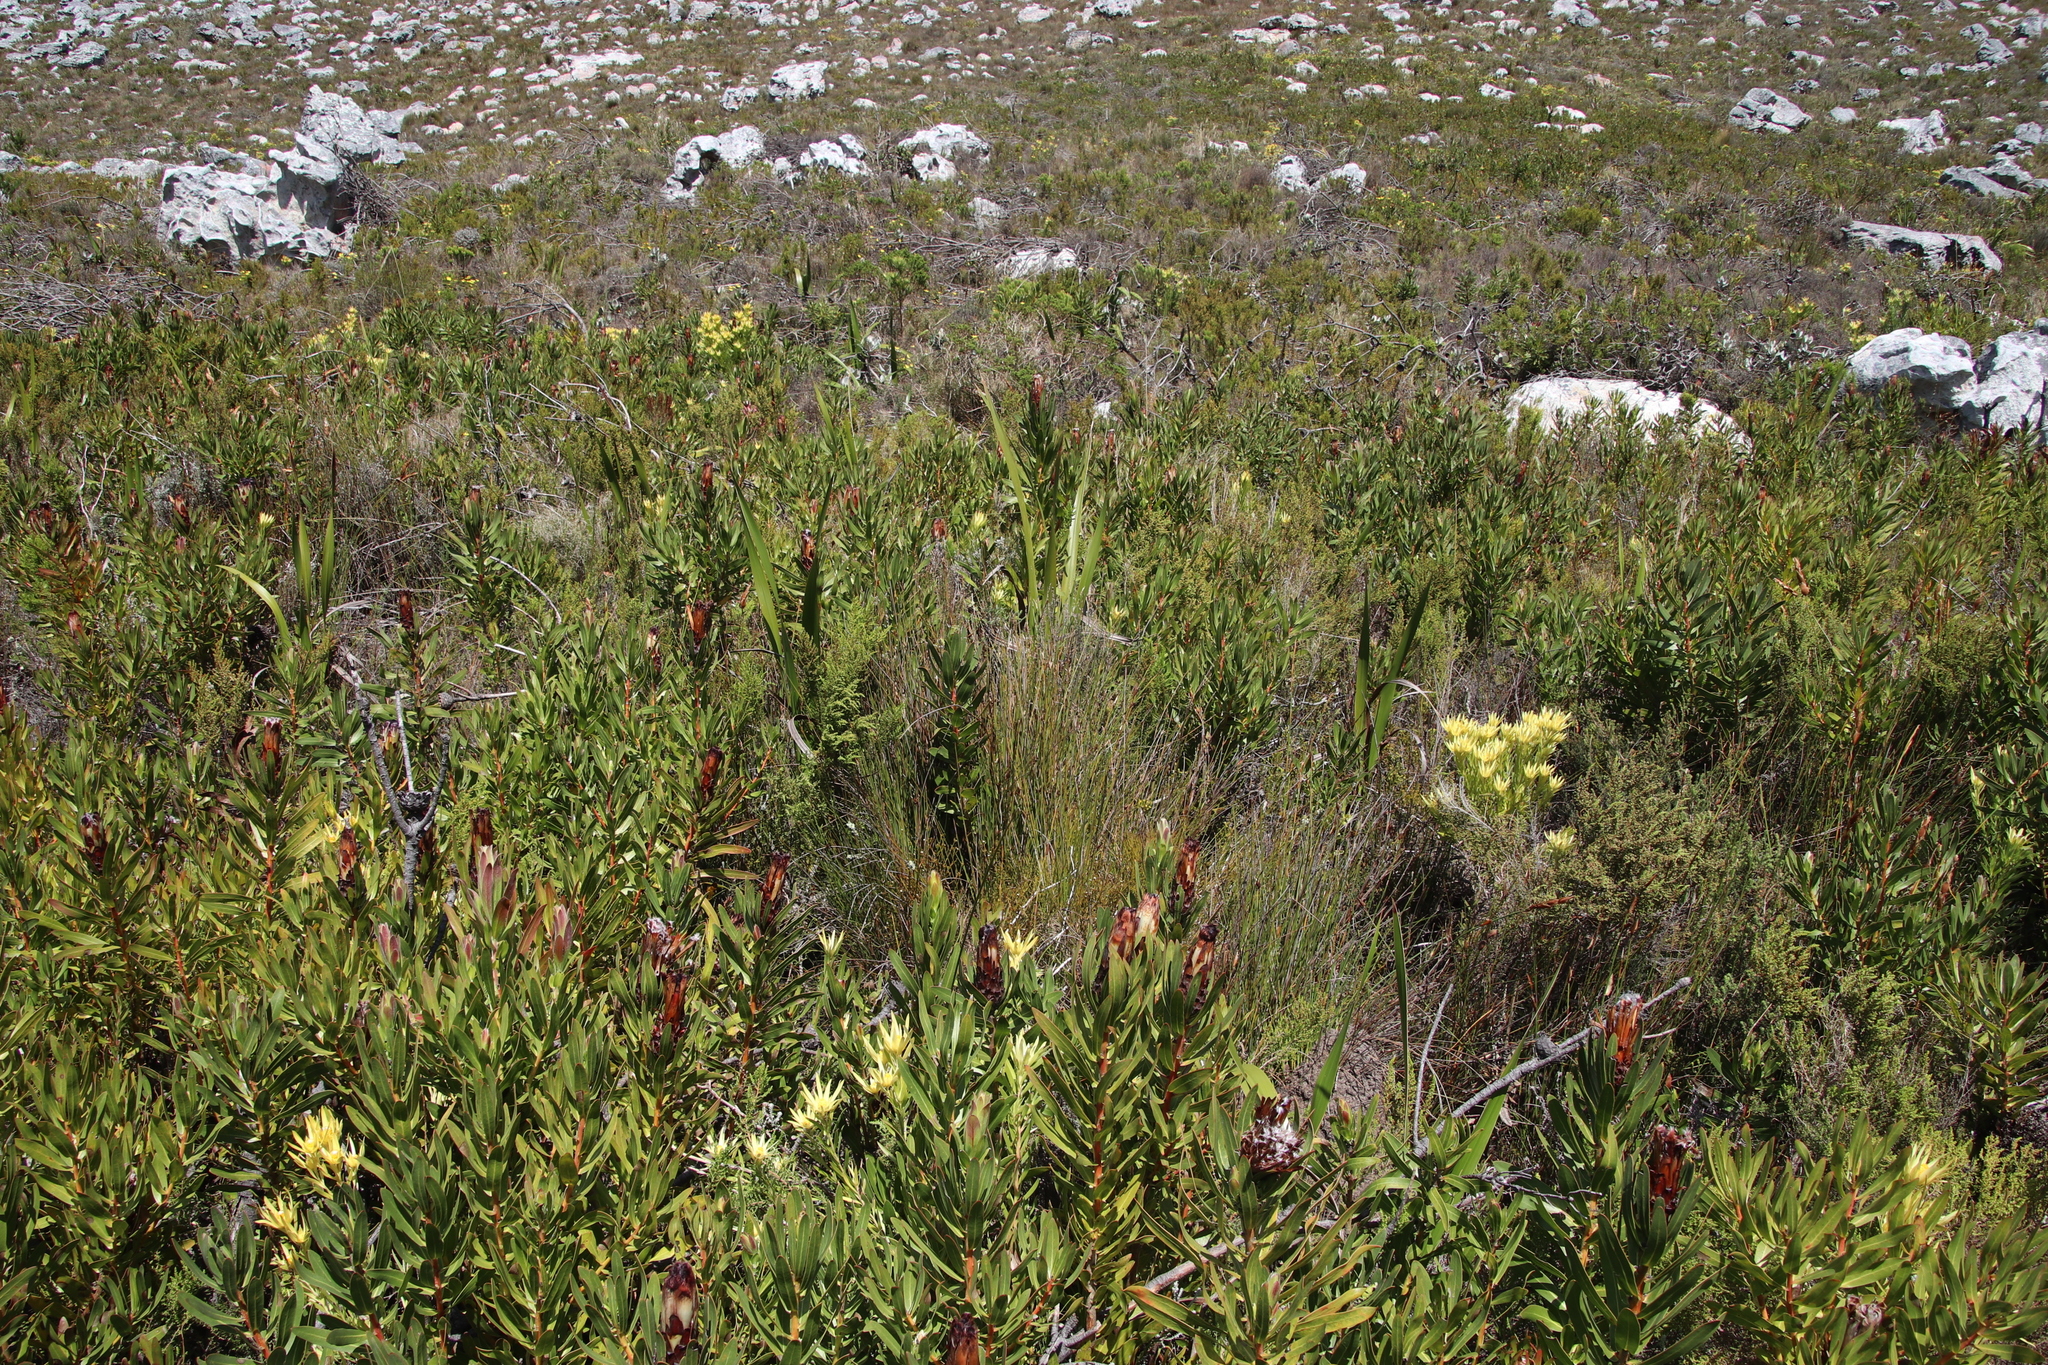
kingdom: Plantae
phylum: Tracheophyta
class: Magnoliopsida
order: Proteales
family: Proteaceae
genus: Protea
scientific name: Protea lepidocarpodendron
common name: Black-bearded protea
